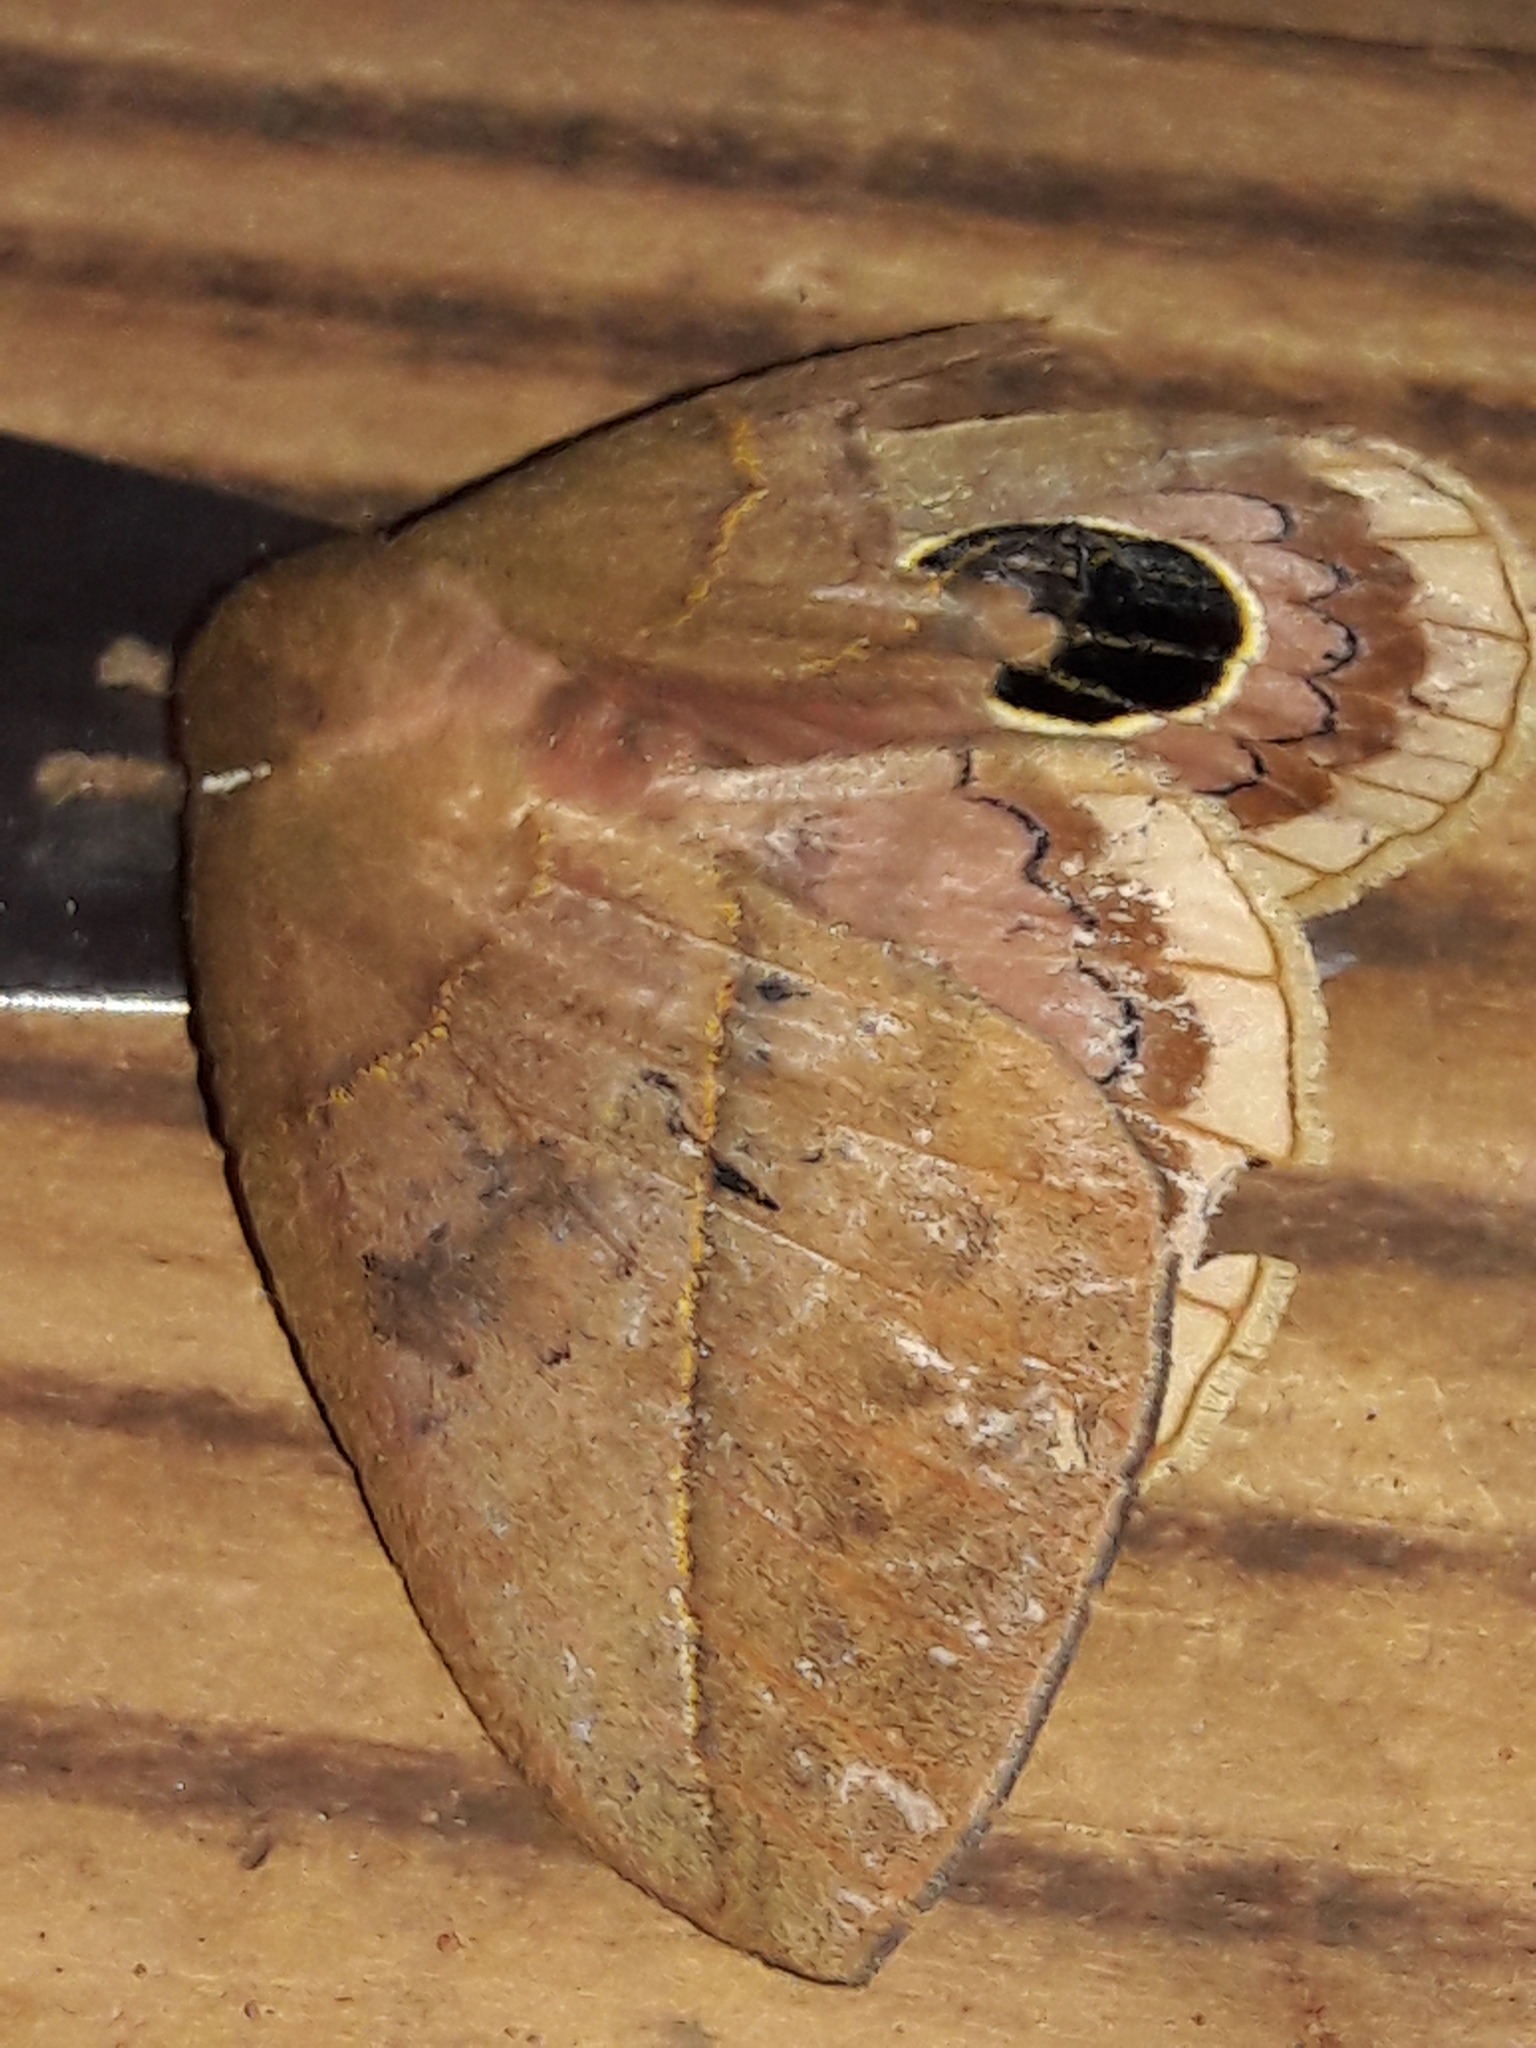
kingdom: Animalia
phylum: Arthropoda
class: Insecta
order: Lepidoptera
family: Saturniidae
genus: Pseudautomeris
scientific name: Pseudautomeris luteata
